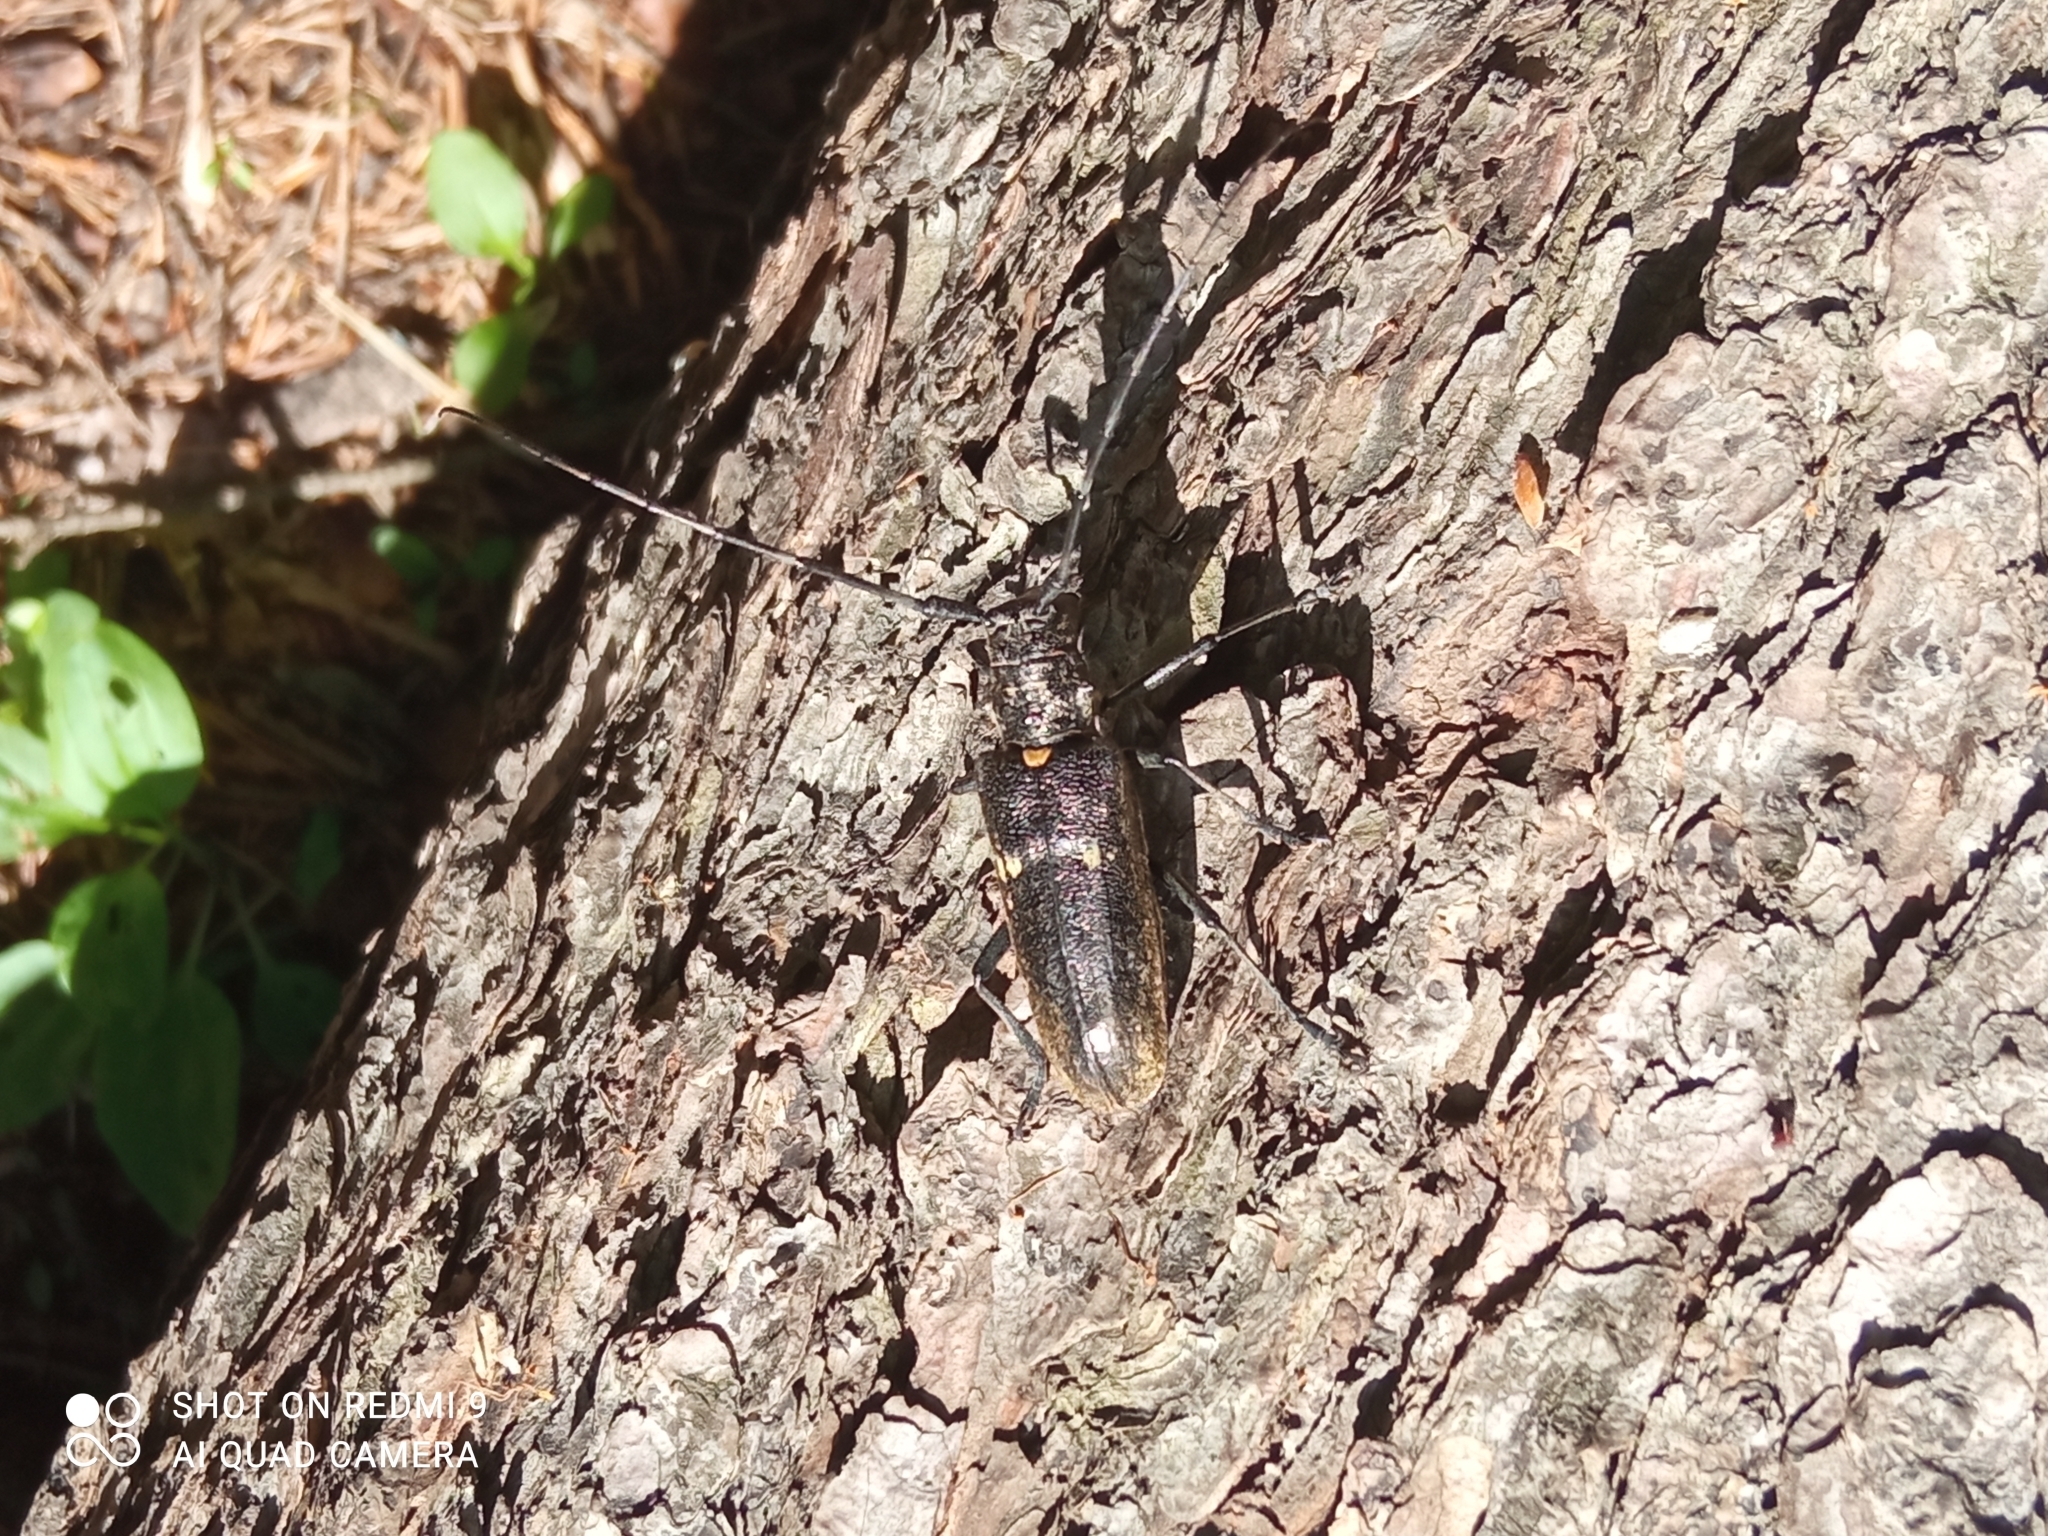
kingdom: Animalia
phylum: Arthropoda
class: Insecta
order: Coleoptera
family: Cerambycidae
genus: Monochamus
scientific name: Monochamus sartor
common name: Pine sawyer
